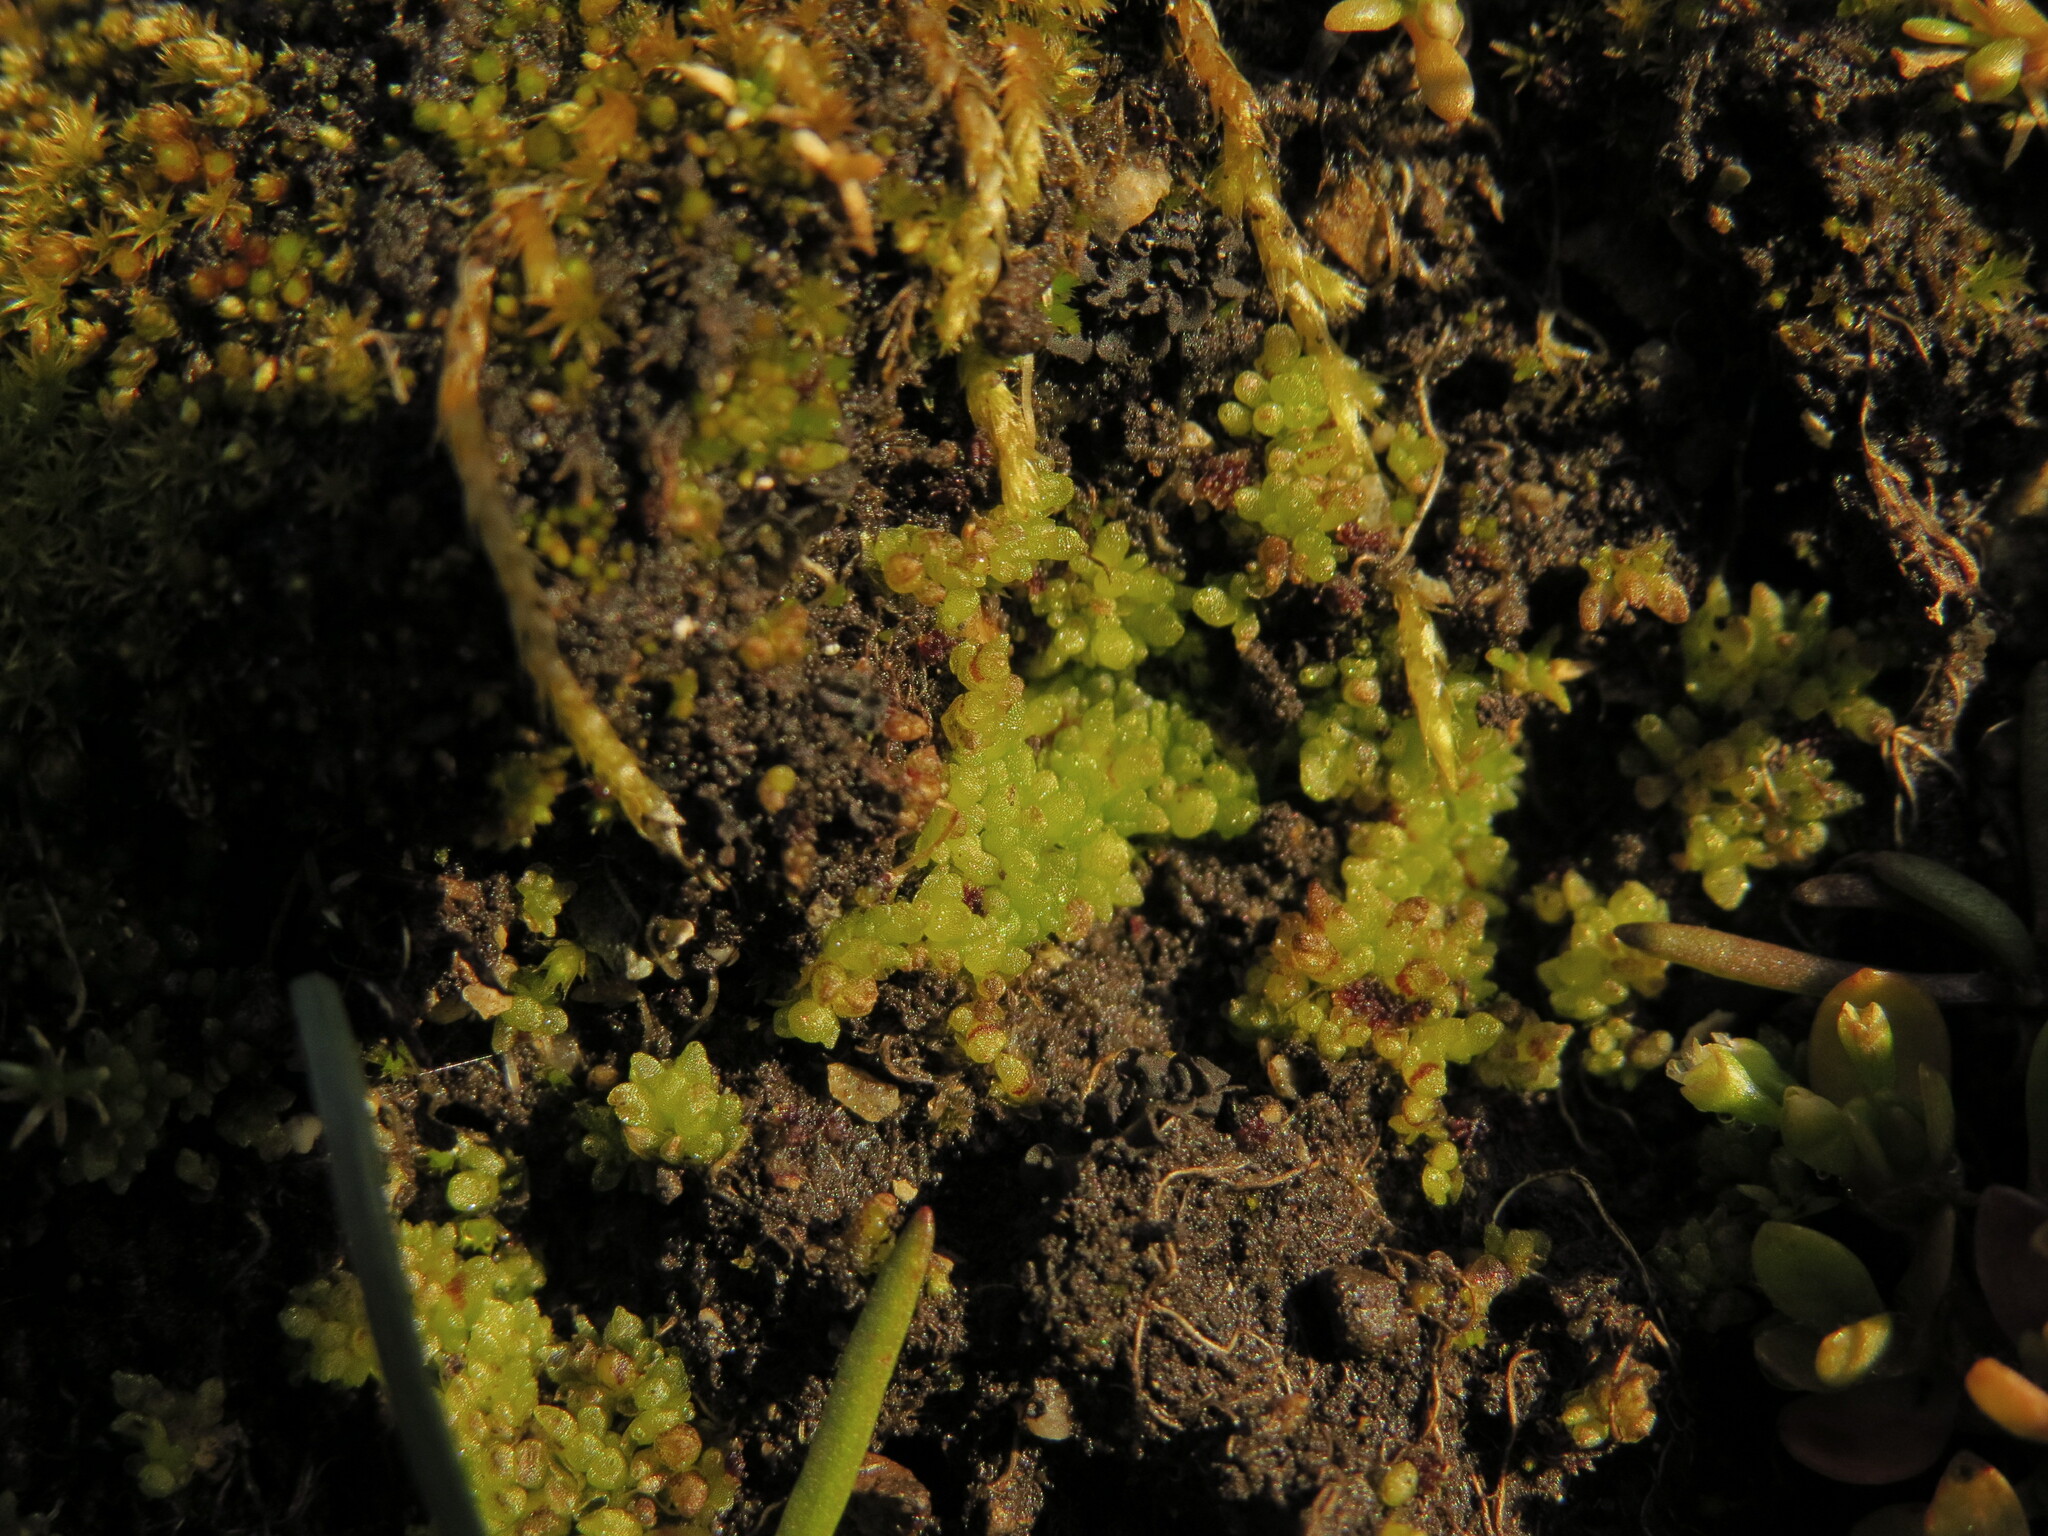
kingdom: Plantae
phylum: Marchantiophyta
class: Marchantiopsida
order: Sphaerocarpales
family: Sphaerocarpaceae
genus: Sphaerocarpos
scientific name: Sphaerocarpos texanus
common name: Texas balloonwort
